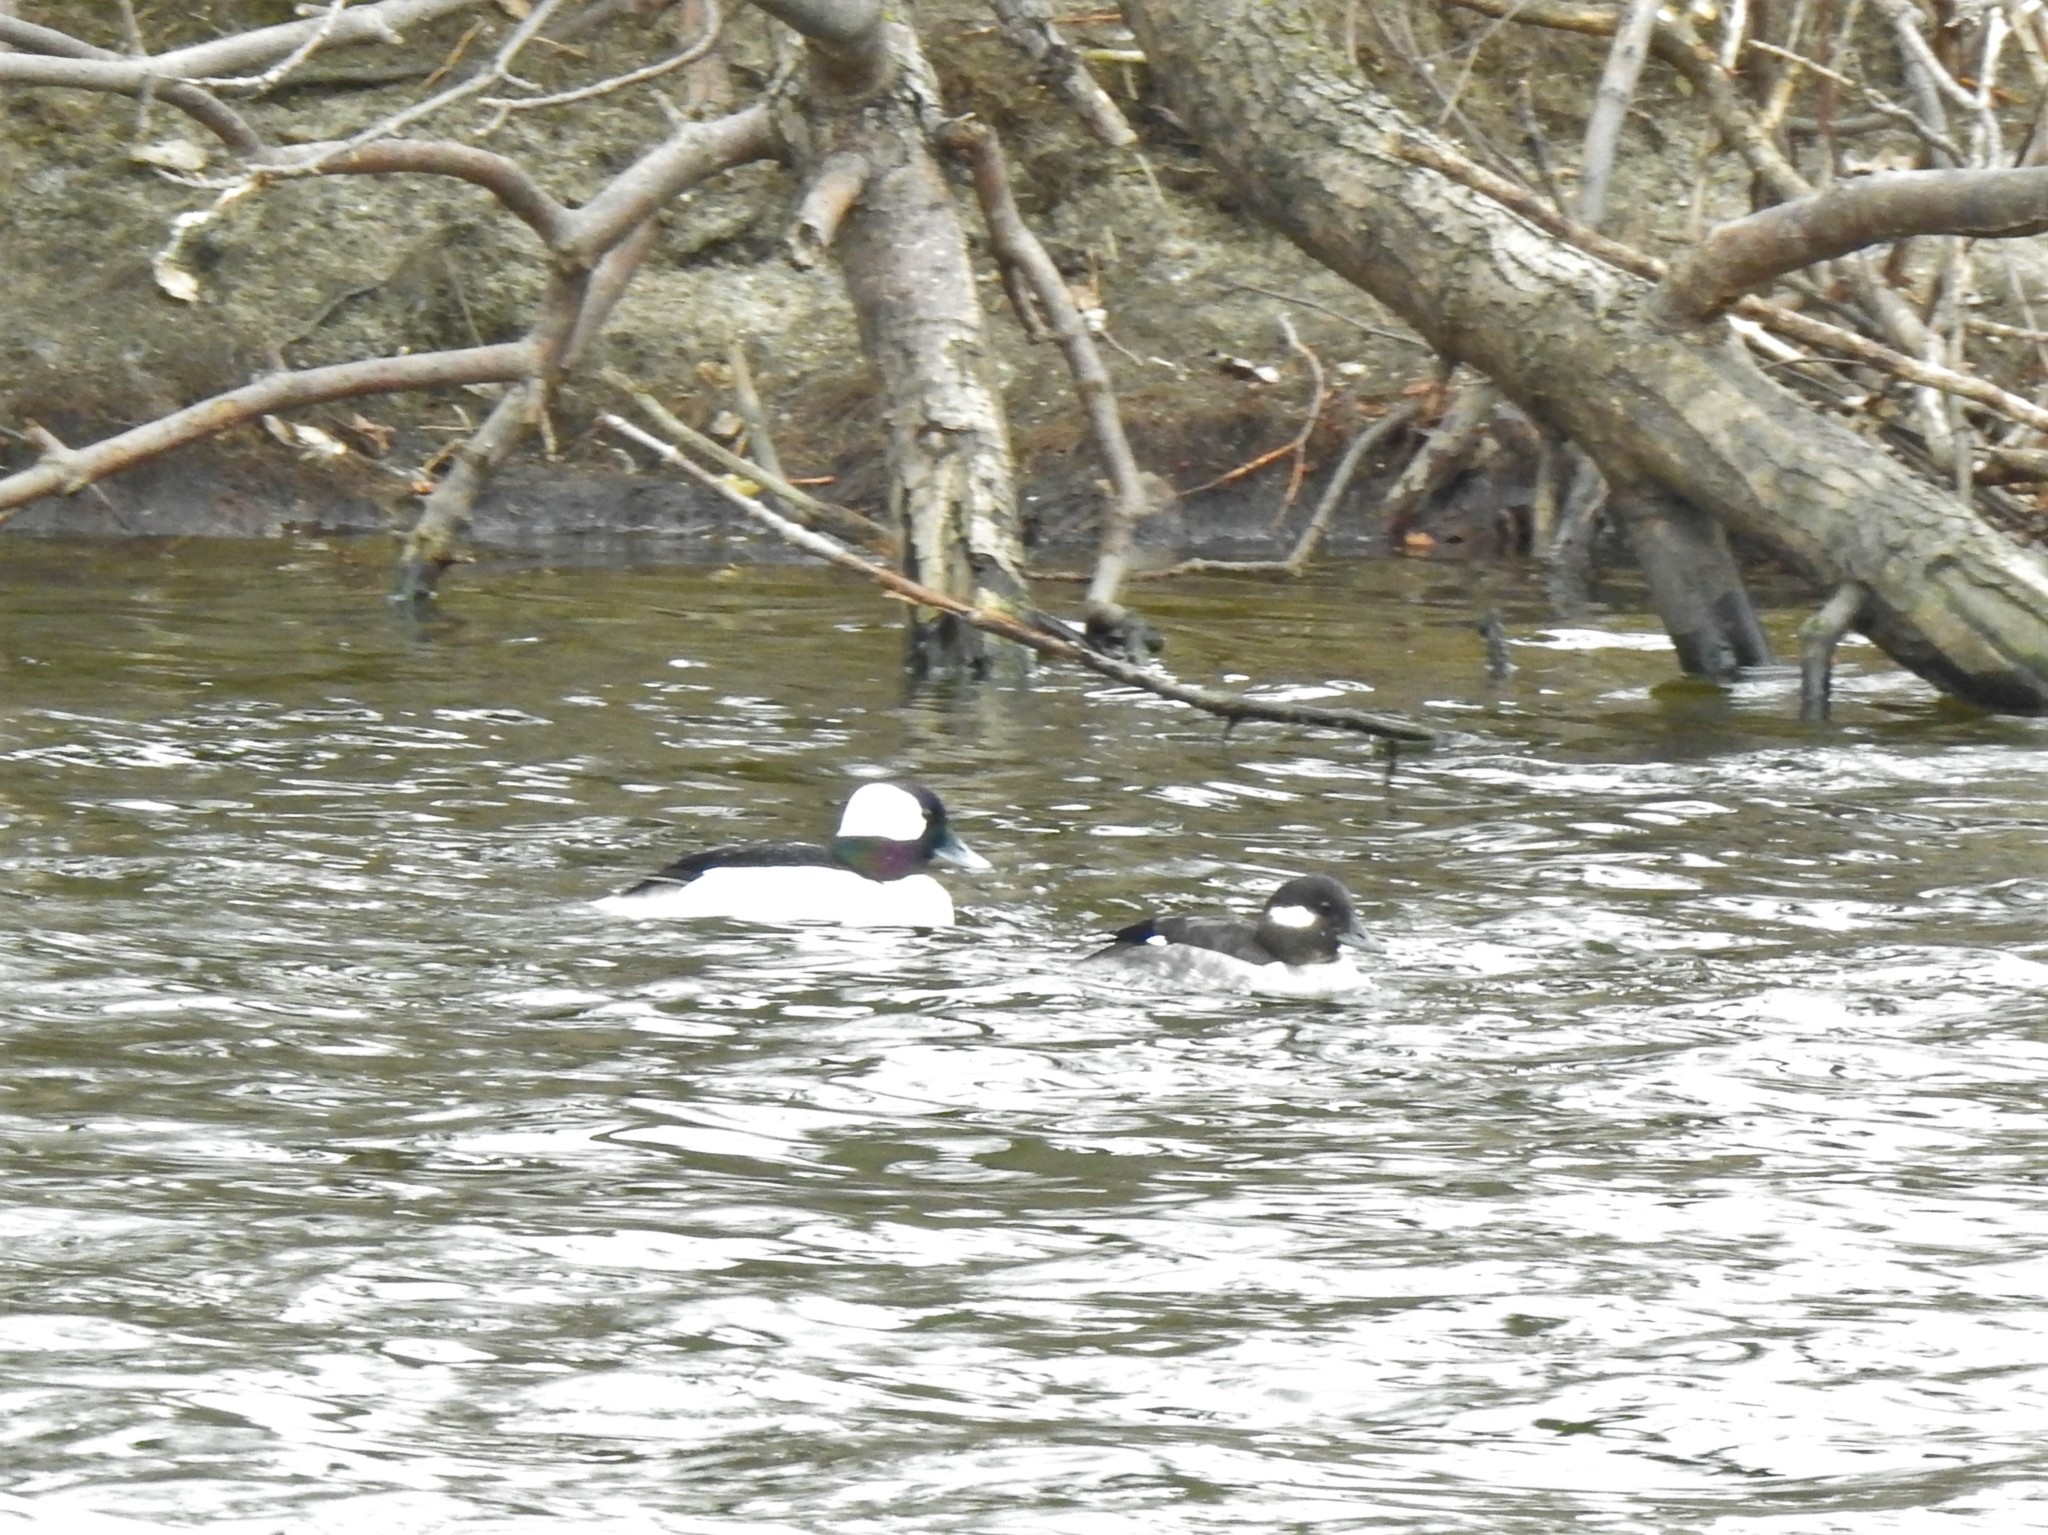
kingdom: Animalia
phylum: Chordata
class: Aves
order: Anseriformes
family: Anatidae
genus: Bucephala
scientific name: Bucephala albeola
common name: Bufflehead
